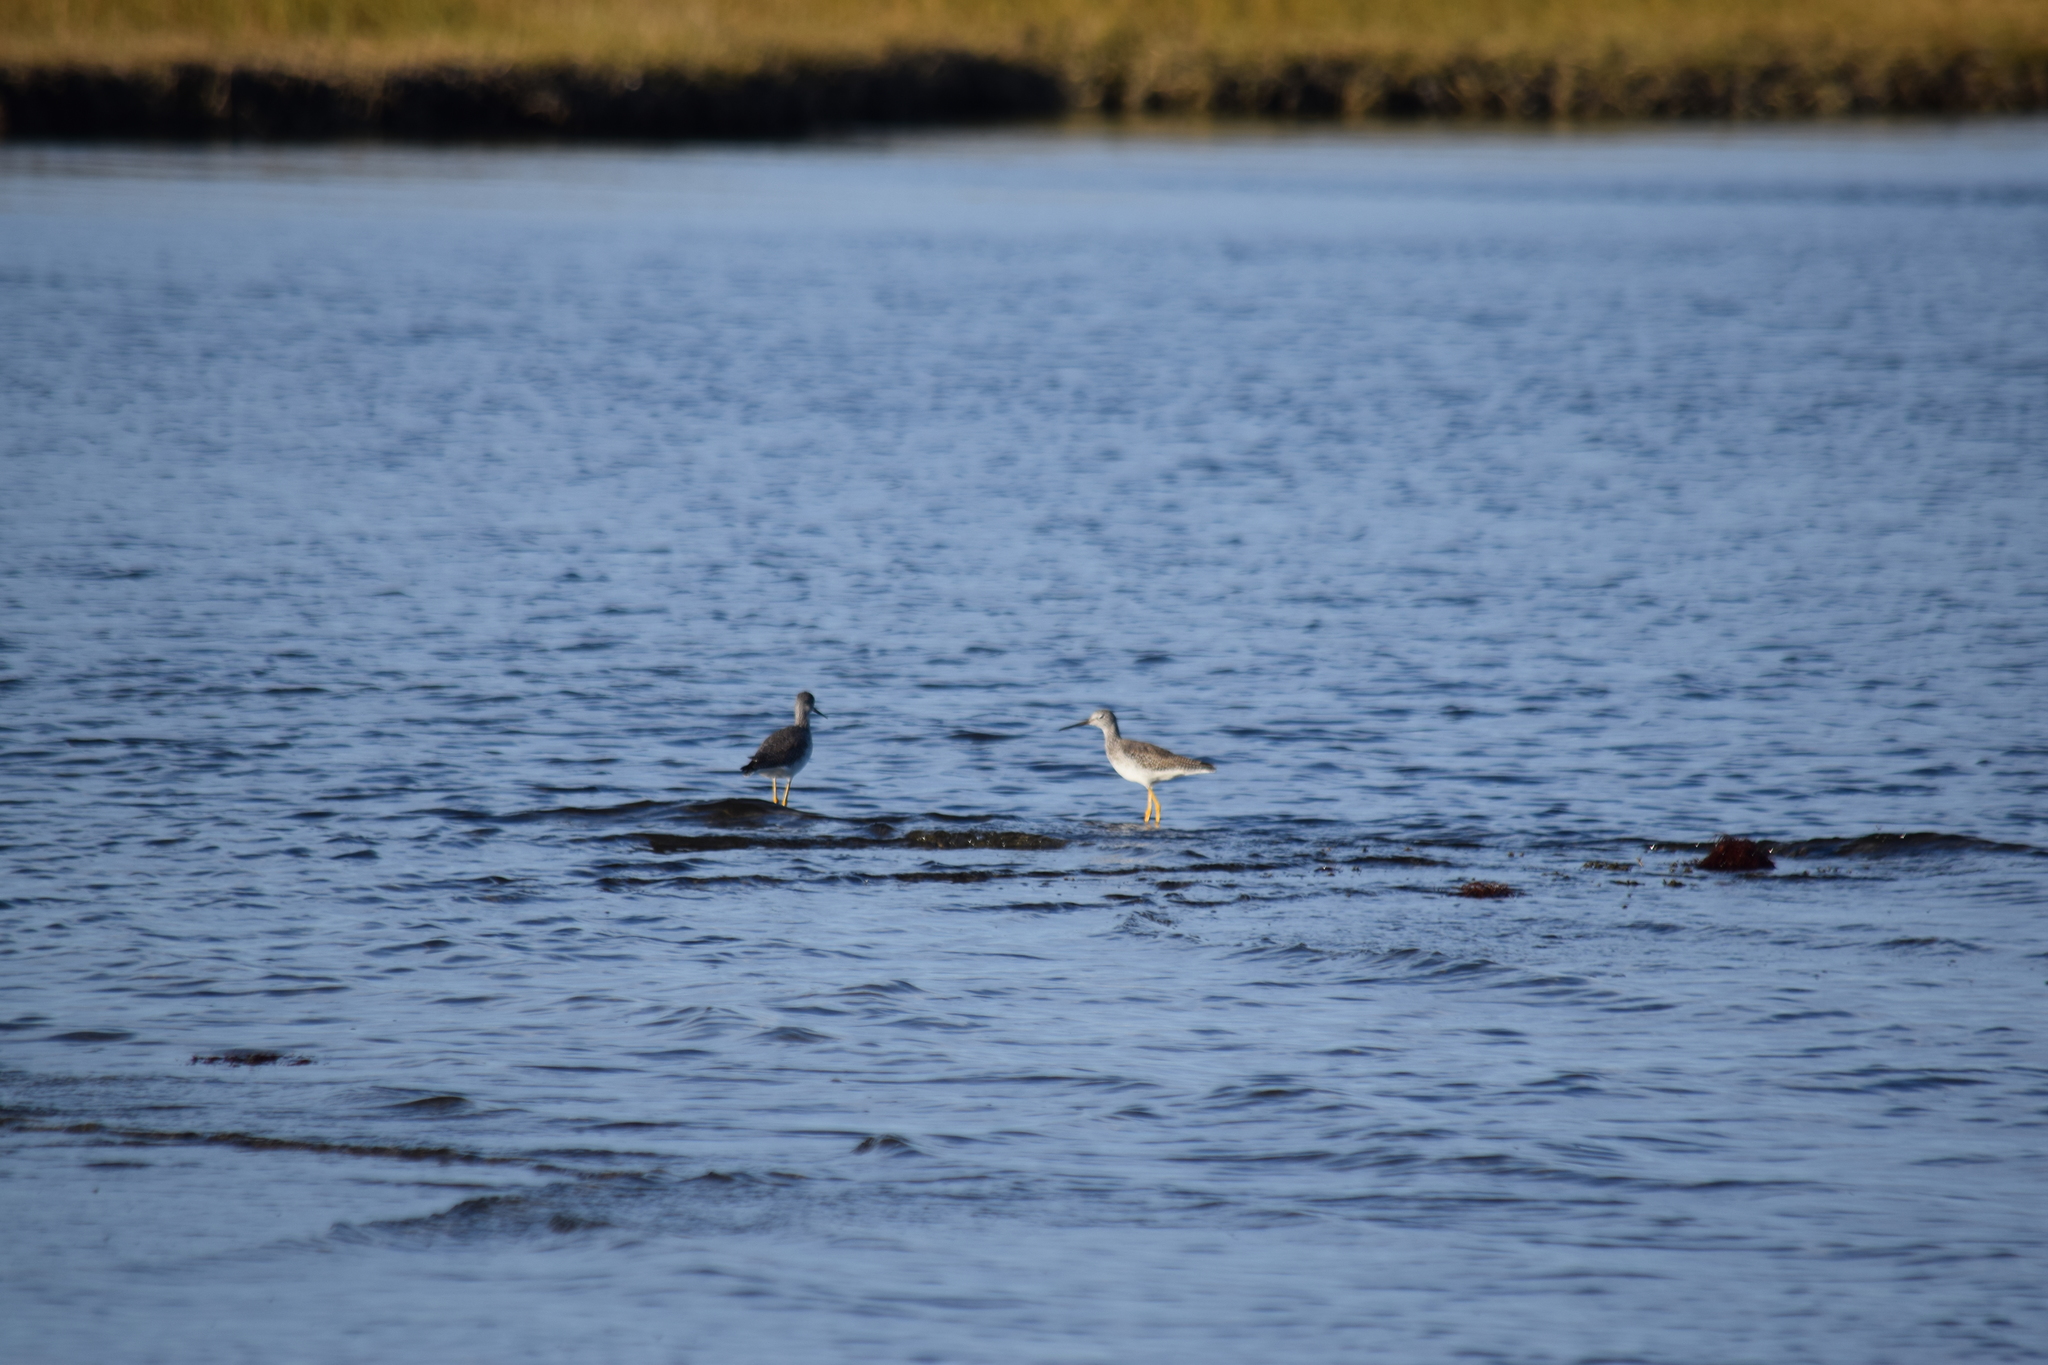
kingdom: Animalia
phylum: Chordata
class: Aves
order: Charadriiformes
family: Scolopacidae
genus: Tringa
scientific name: Tringa melanoleuca
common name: Greater yellowlegs
